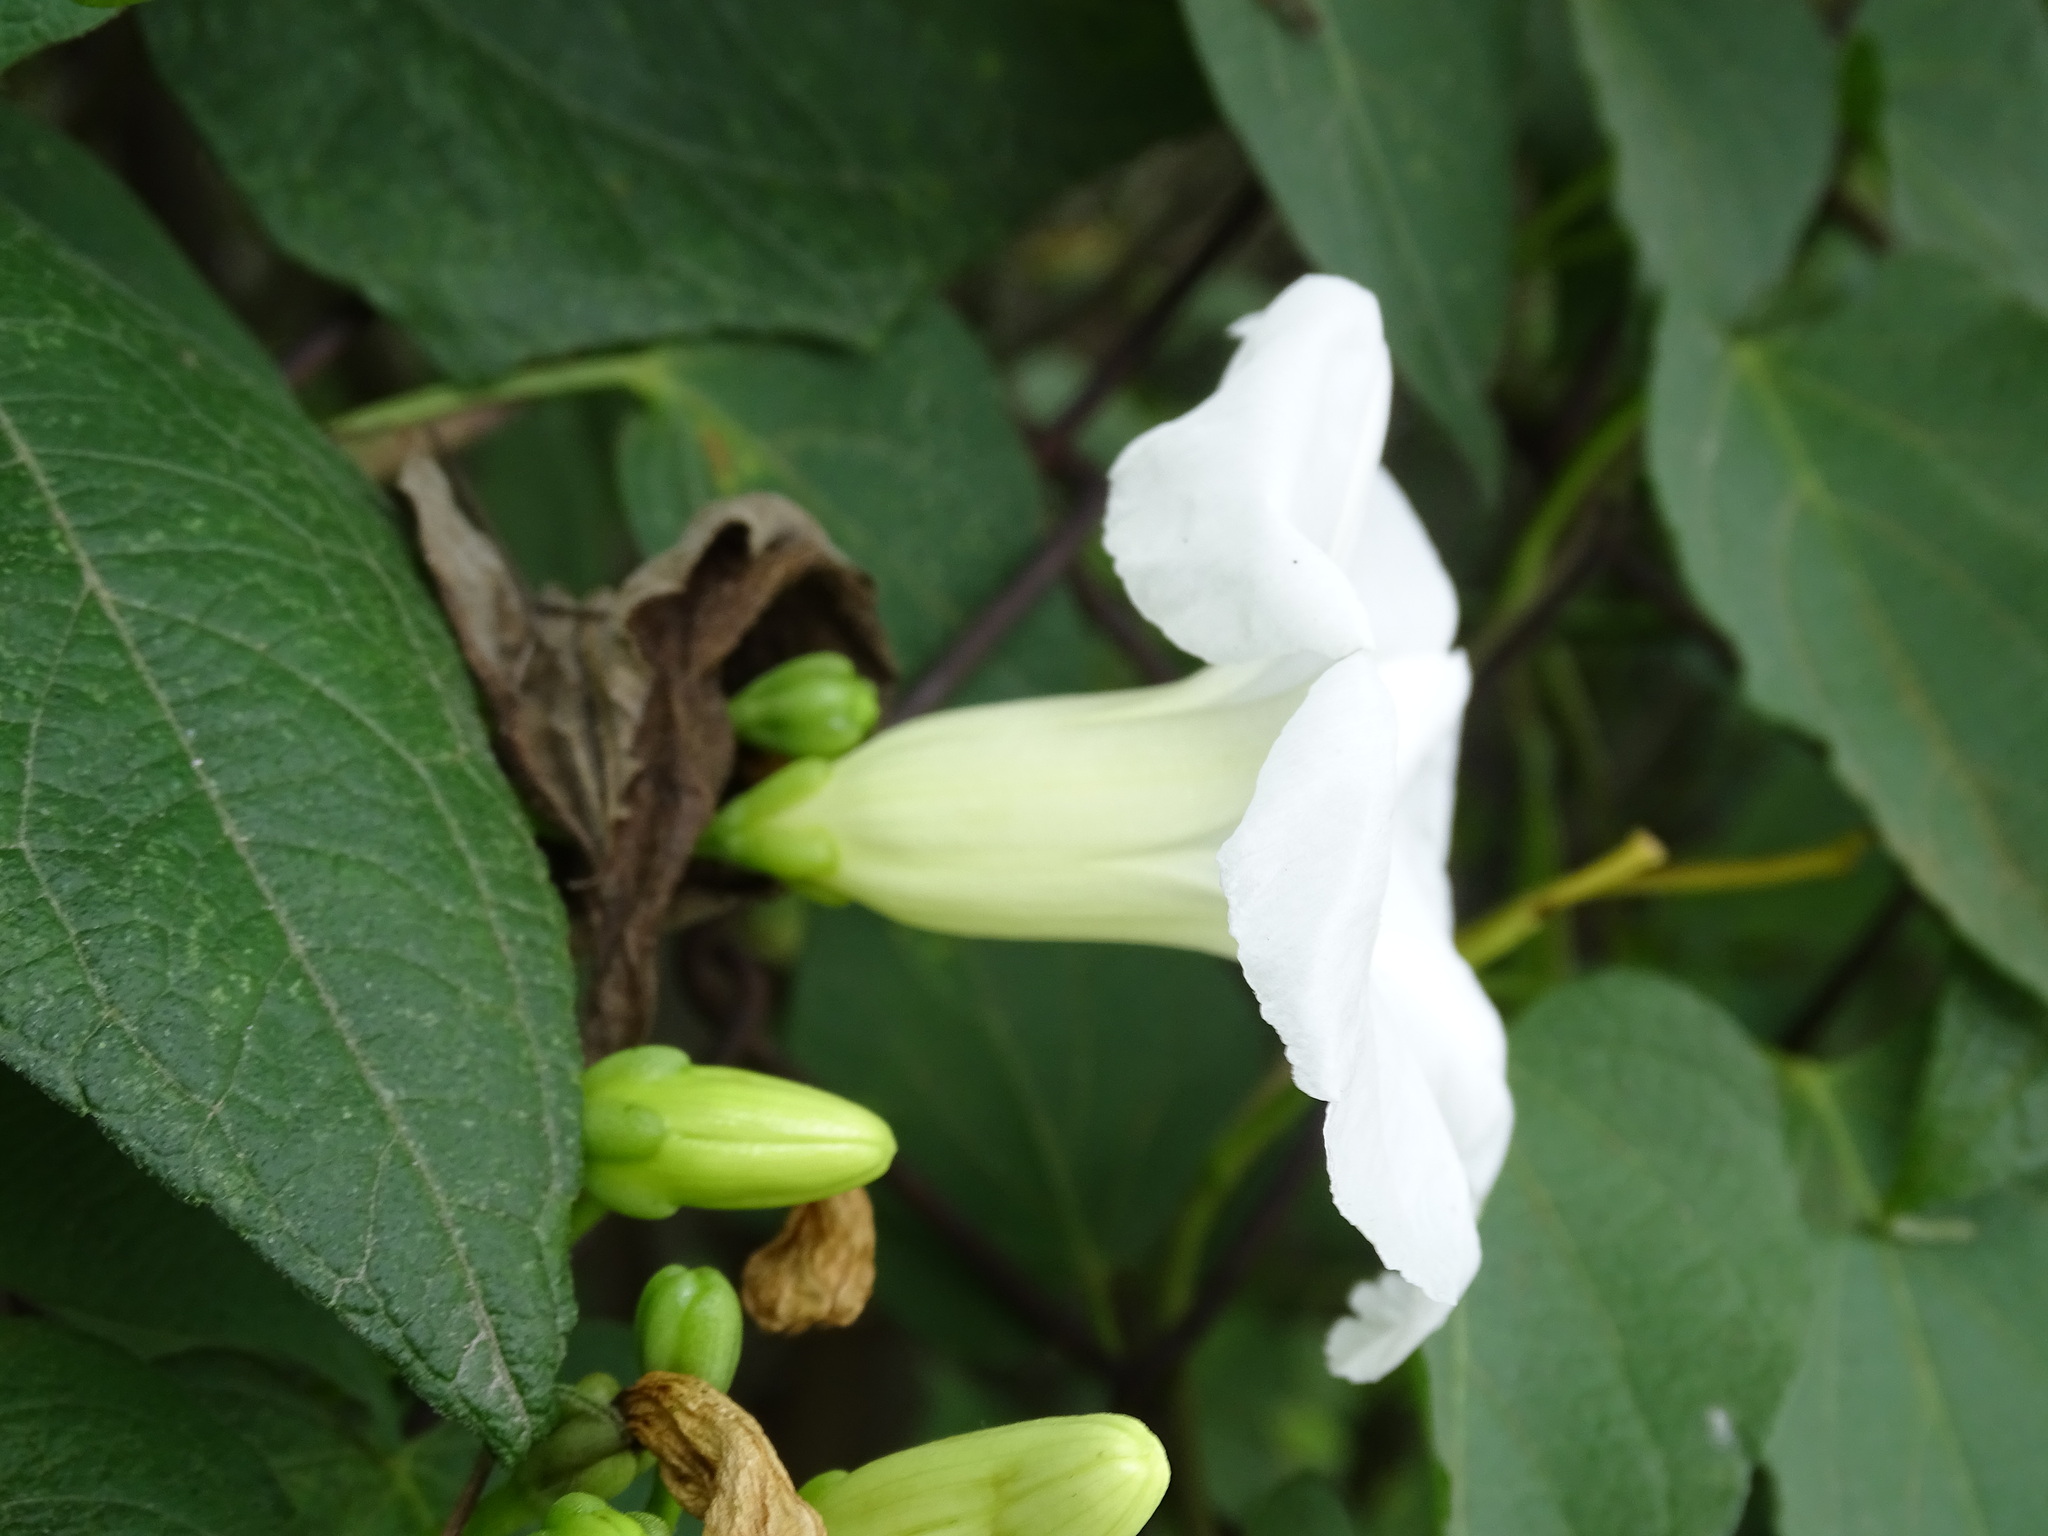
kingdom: Plantae
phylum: Tracheophyta
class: Magnoliopsida
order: Solanales
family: Convolvulaceae
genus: Ipomoea
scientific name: Ipomoea proxima
